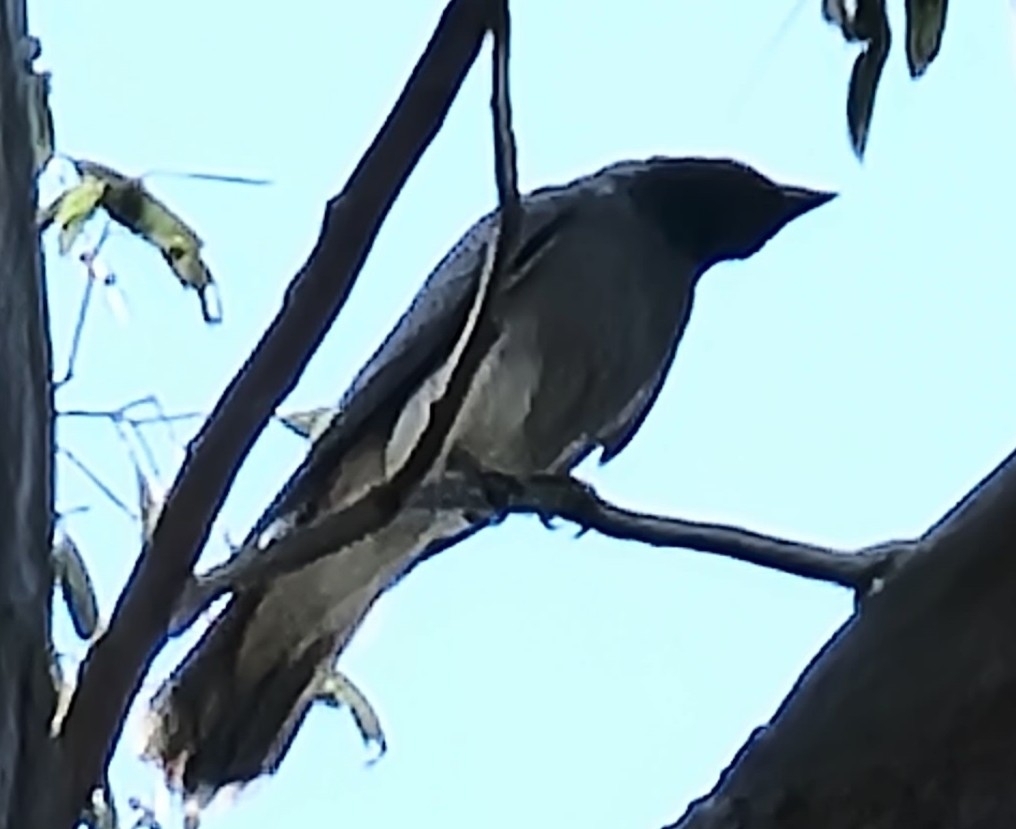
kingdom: Animalia
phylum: Chordata
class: Aves
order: Passeriformes
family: Campephagidae
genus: Coracina
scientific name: Coracina novaehollandiae
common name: Black-faced cuckooshrike
